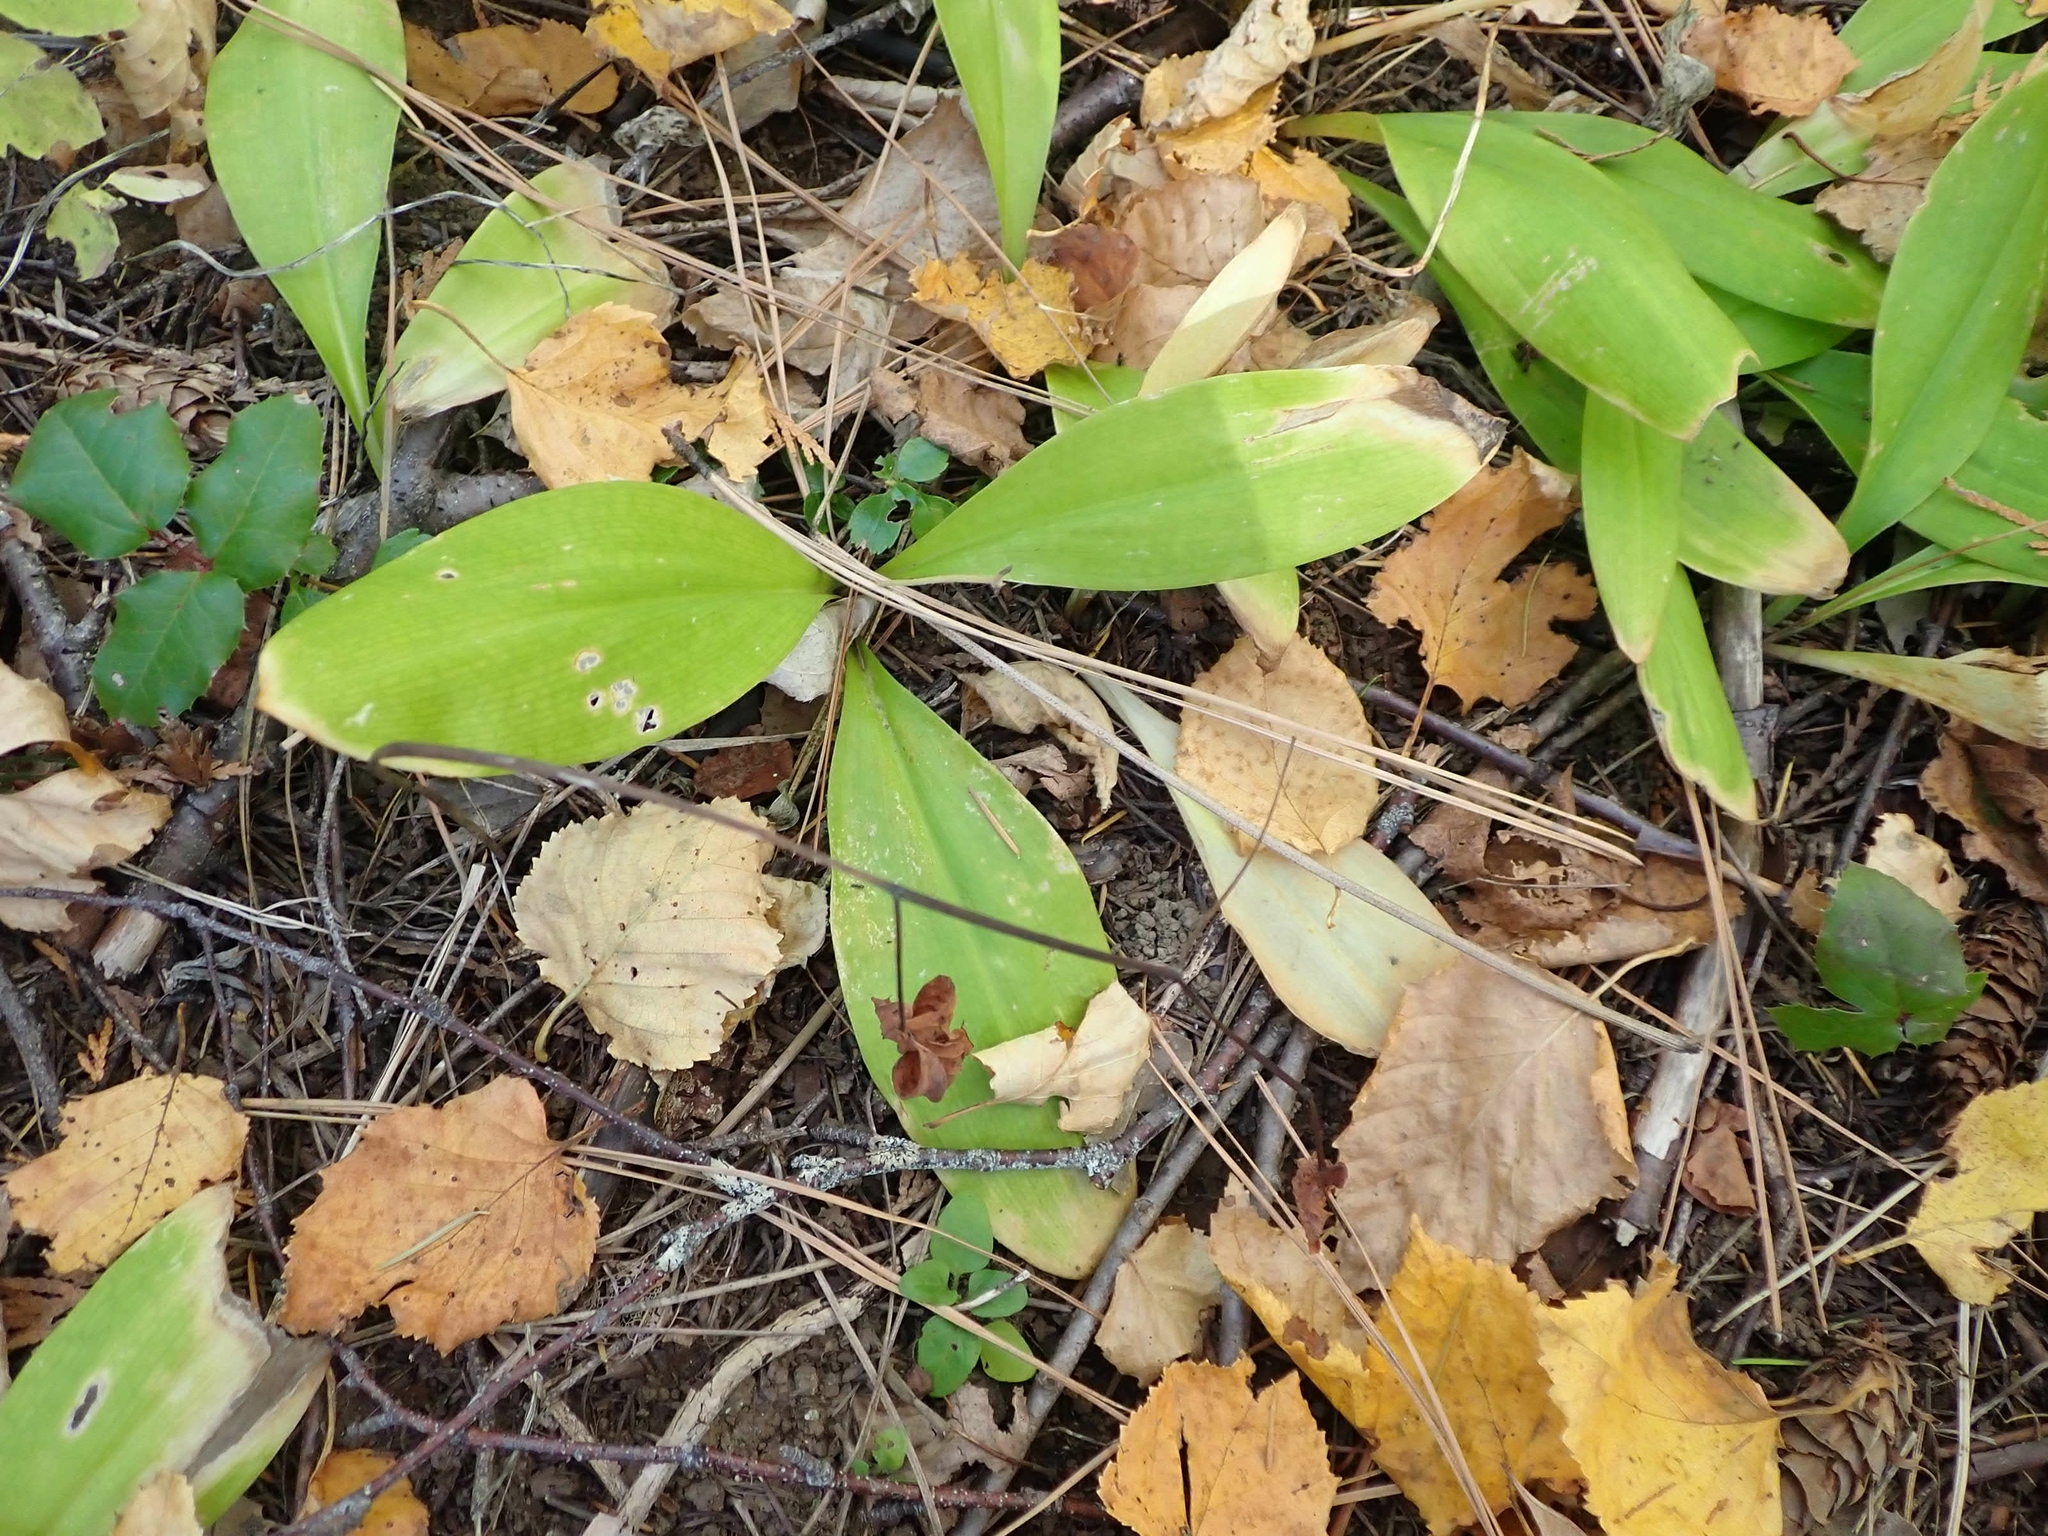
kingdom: Plantae
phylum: Tracheophyta
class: Liliopsida
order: Liliales
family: Liliaceae
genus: Clintonia
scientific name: Clintonia uniflora
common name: Queen's cup
